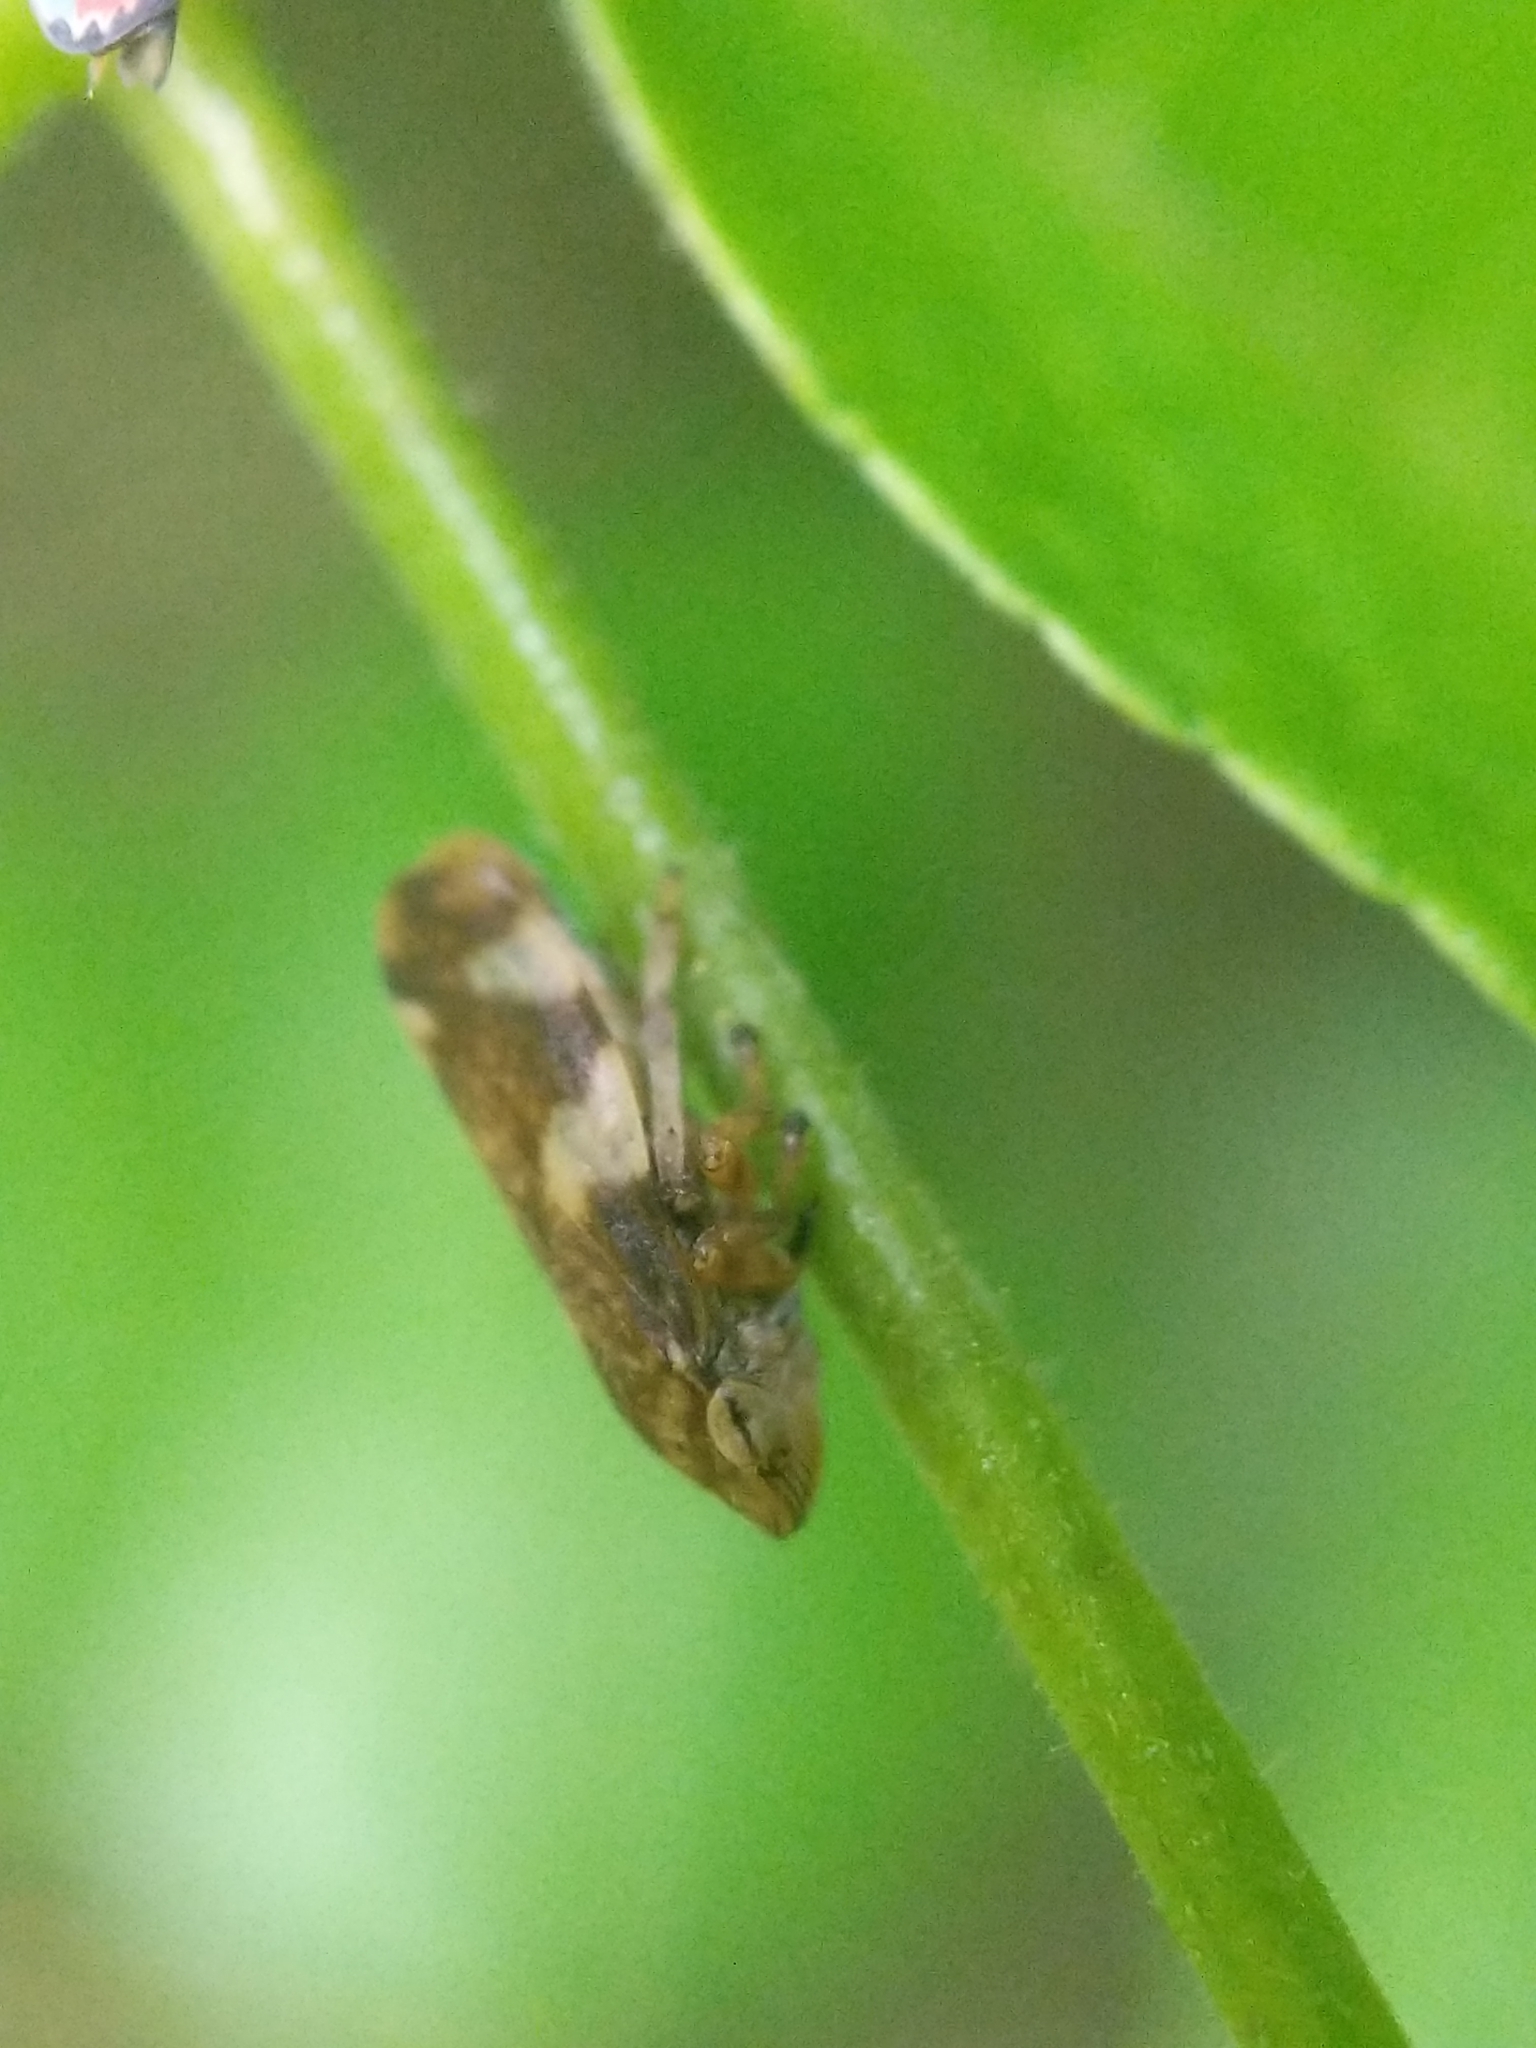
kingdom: Animalia
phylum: Arthropoda
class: Insecta
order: Hemiptera
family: Aphrophoridae
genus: Philaenus
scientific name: Philaenus spumarius
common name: Meadow spittlebug
